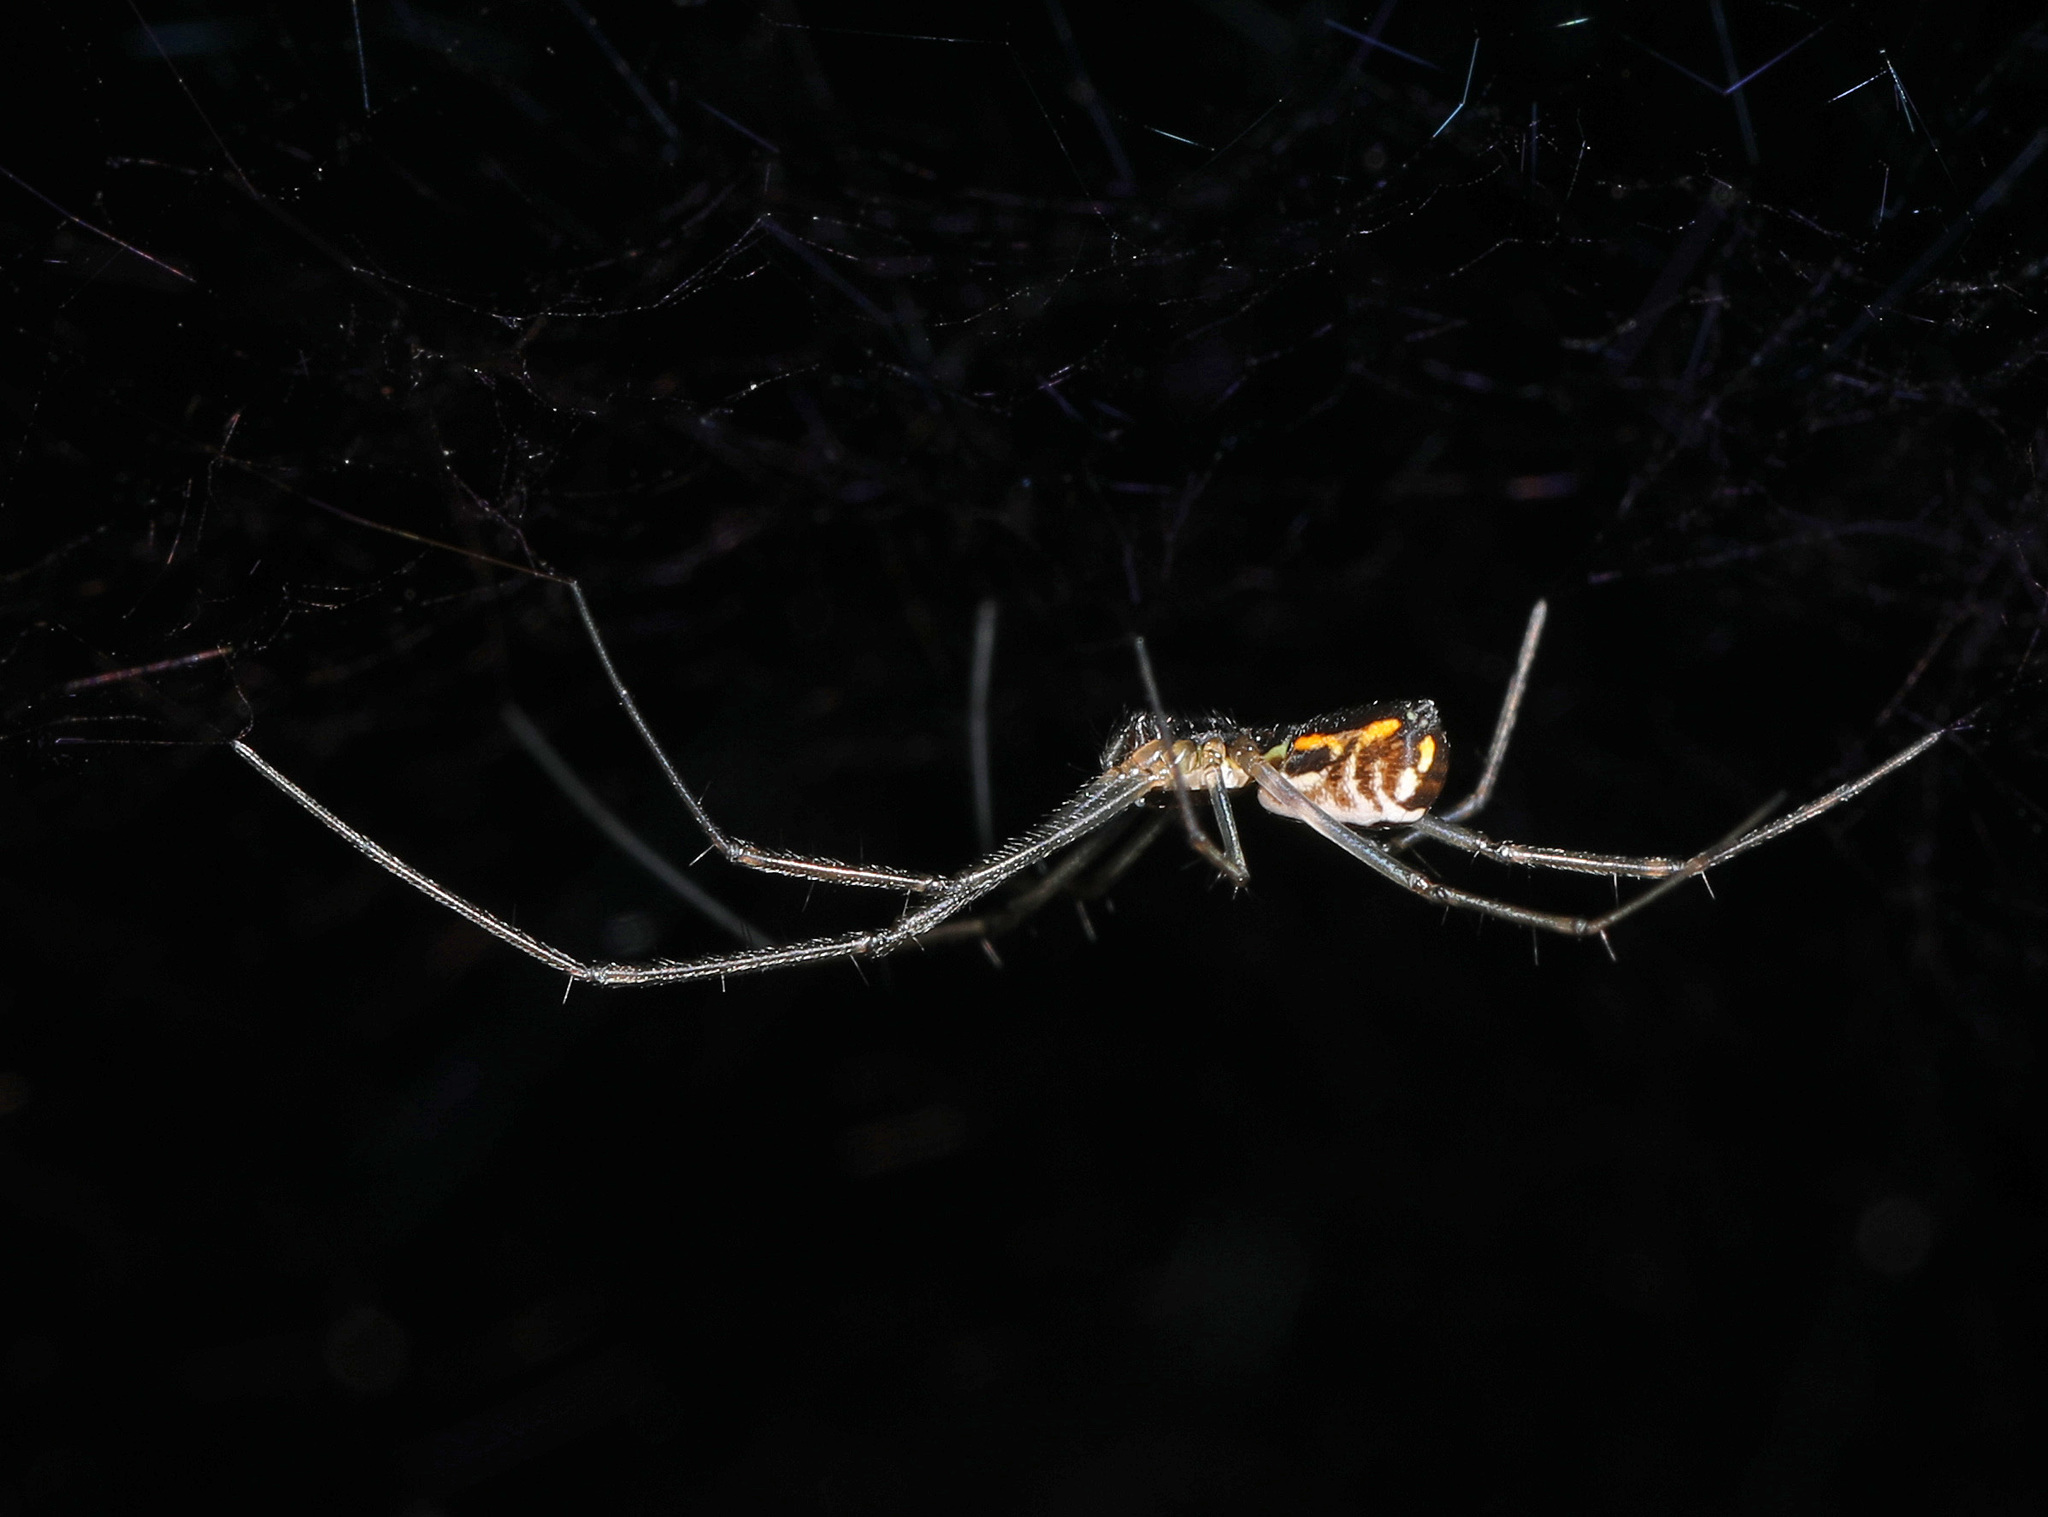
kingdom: Animalia
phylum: Arthropoda
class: Arachnida
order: Araneae
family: Linyphiidae
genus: Neriene
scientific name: Neriene radiata
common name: Filmy dome spider
